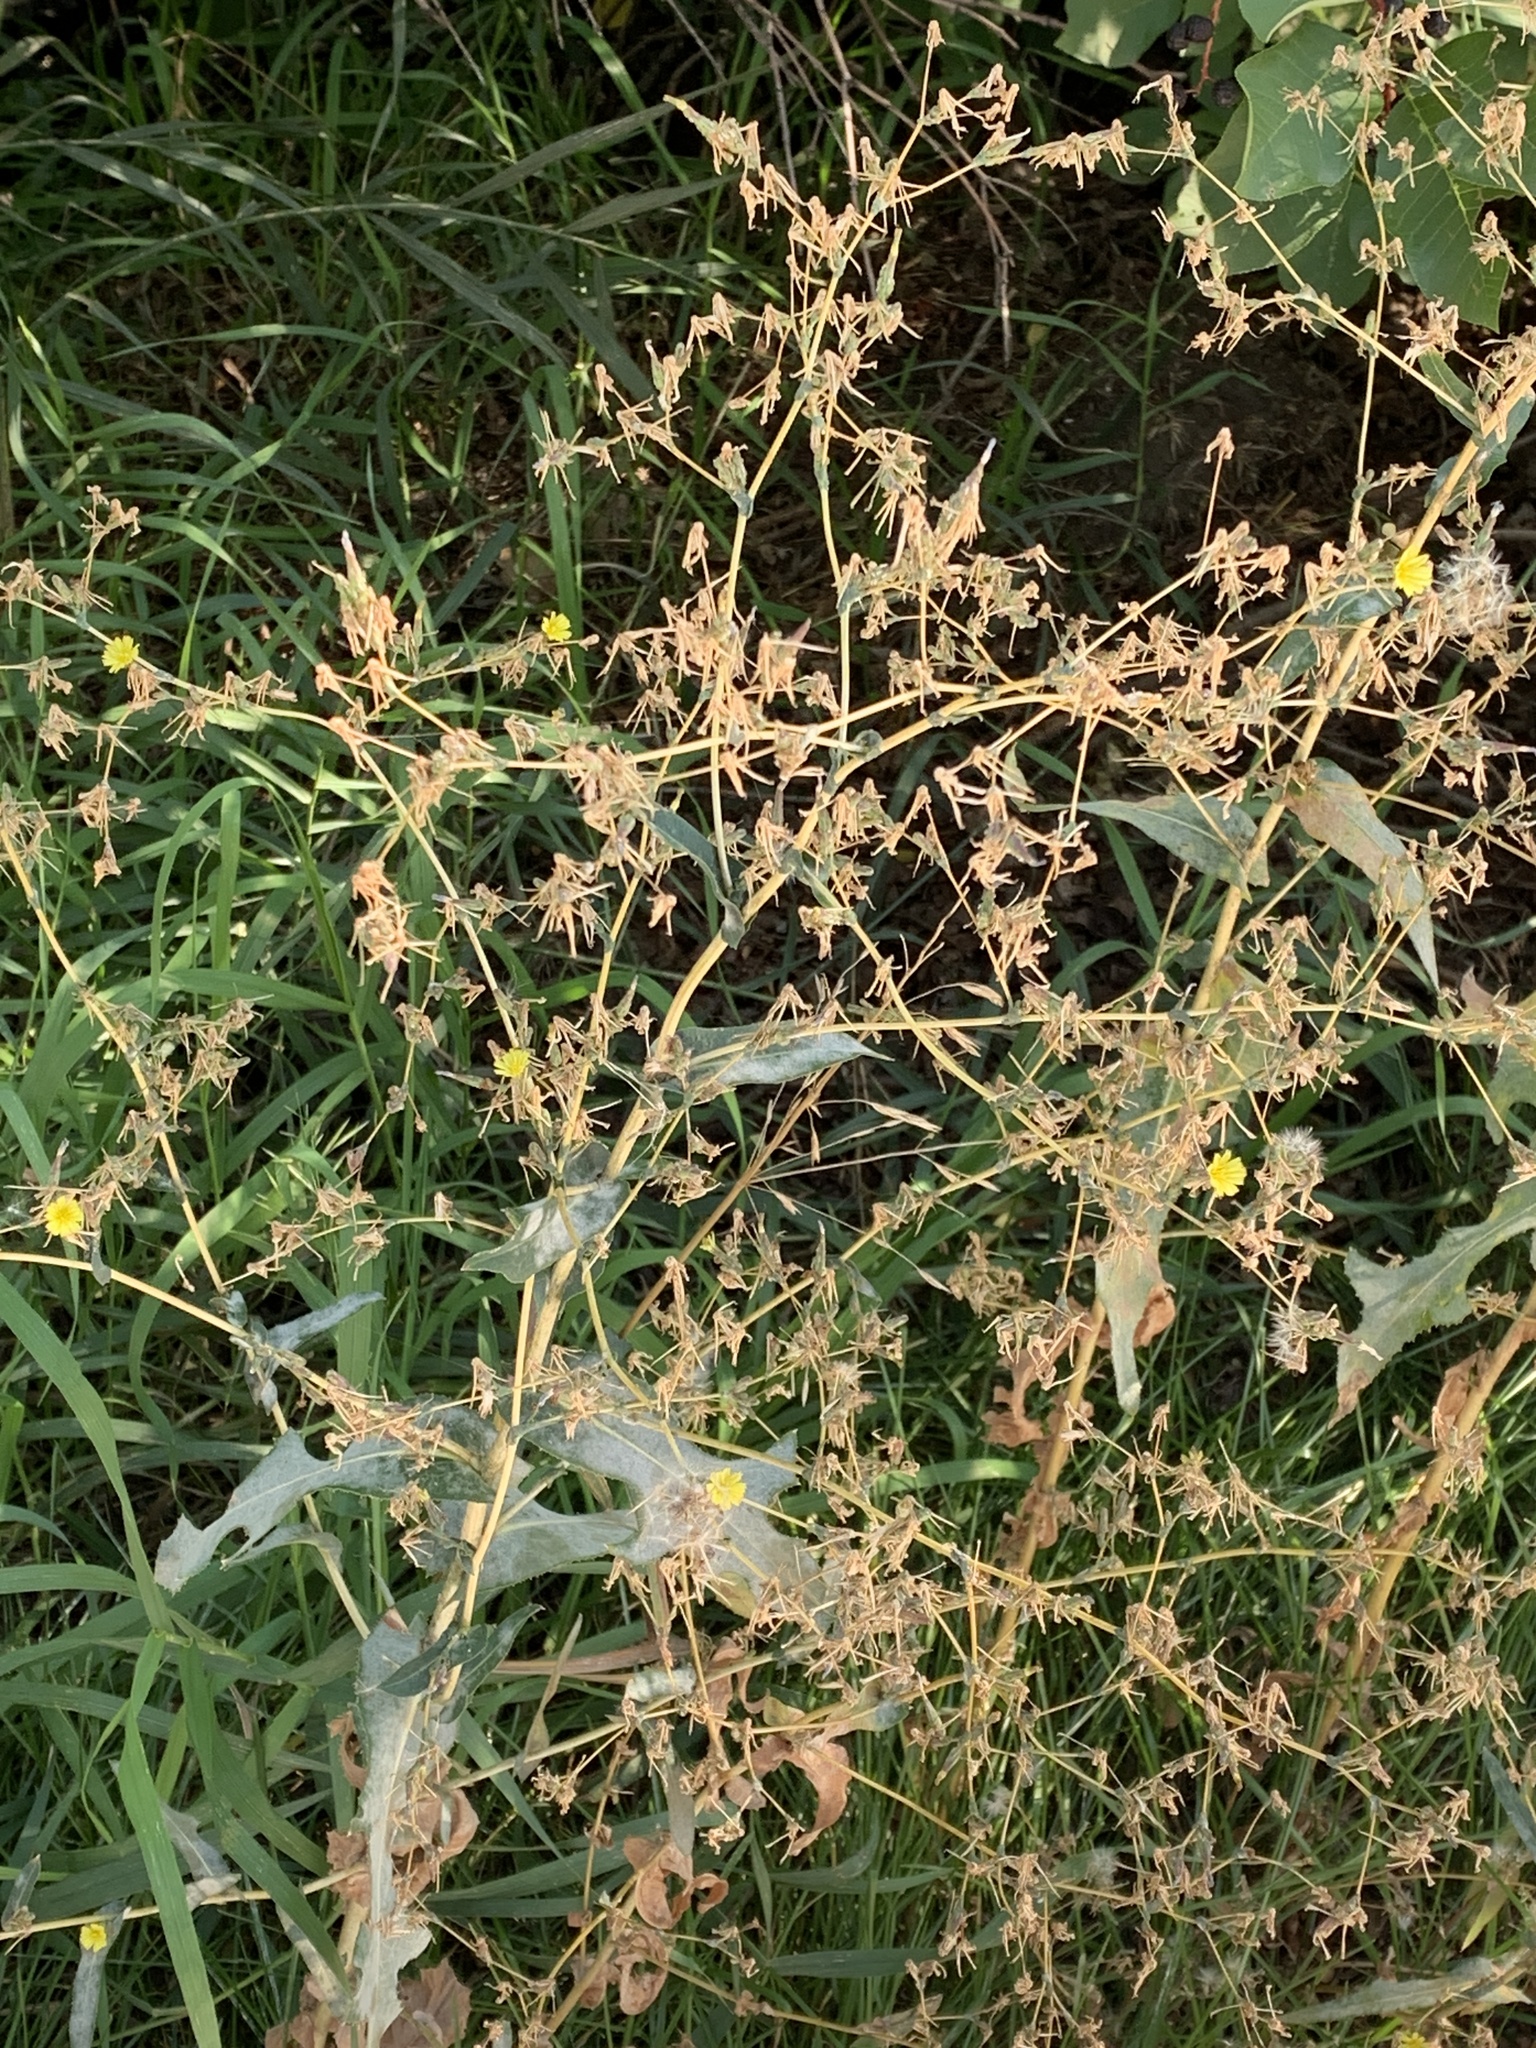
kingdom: Plantae
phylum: Tracheophyta
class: Magnoliopsida
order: Asterales
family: Asteraceae
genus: Lactuca
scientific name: Lactuca serriola
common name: Prickly lettuce
